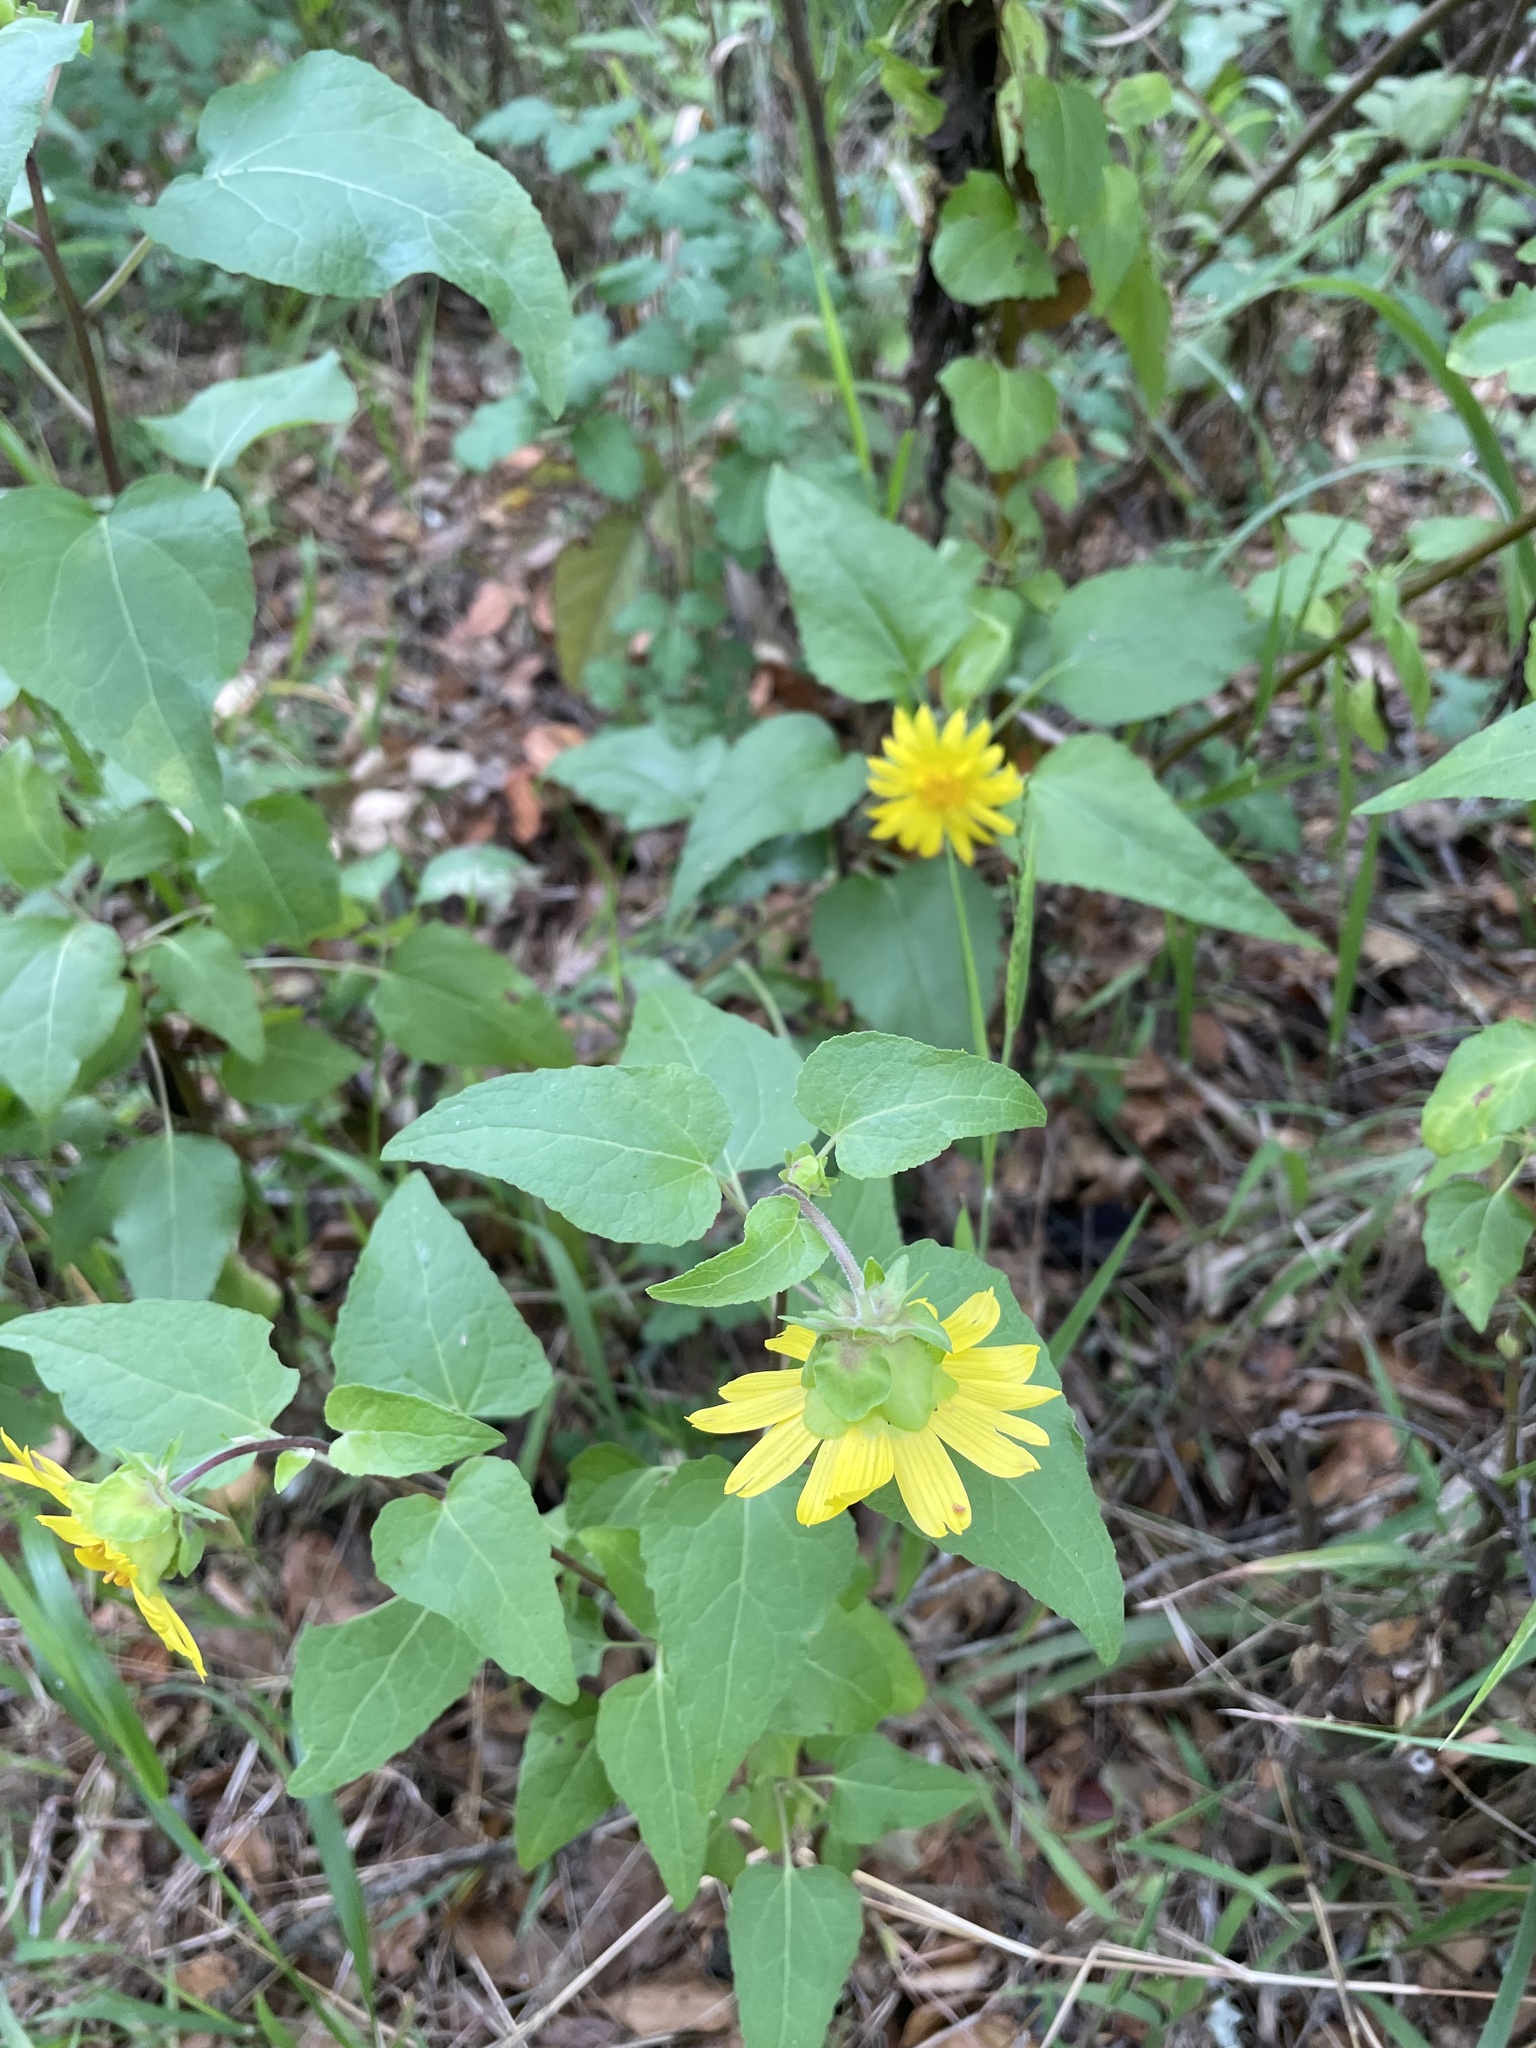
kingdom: Plantae
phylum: Tracheophyta
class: Magnoliopsida
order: Asterales
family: Asteraceae
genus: Venegasia
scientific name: Venegasia carpesioides
